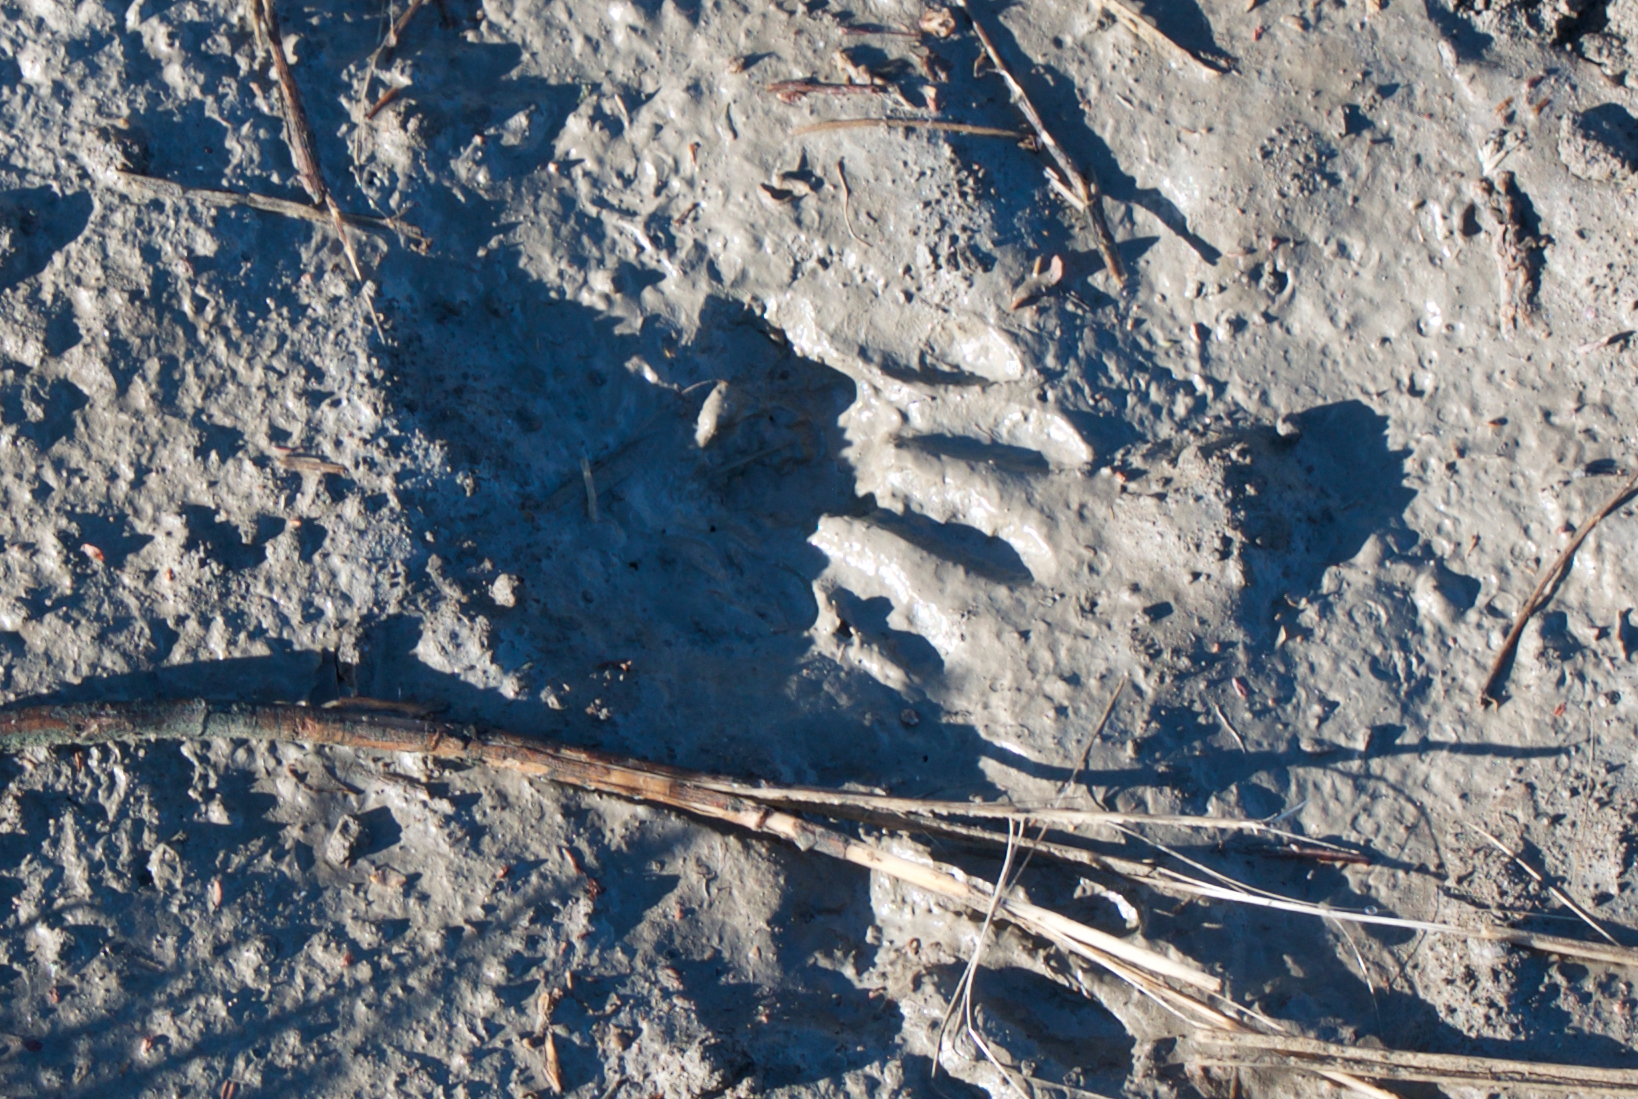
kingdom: Animalia
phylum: Chordata
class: Mammalia
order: Carnivora
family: Procyonidae
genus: Procyon
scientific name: Procyon lotor
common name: Raccoon
